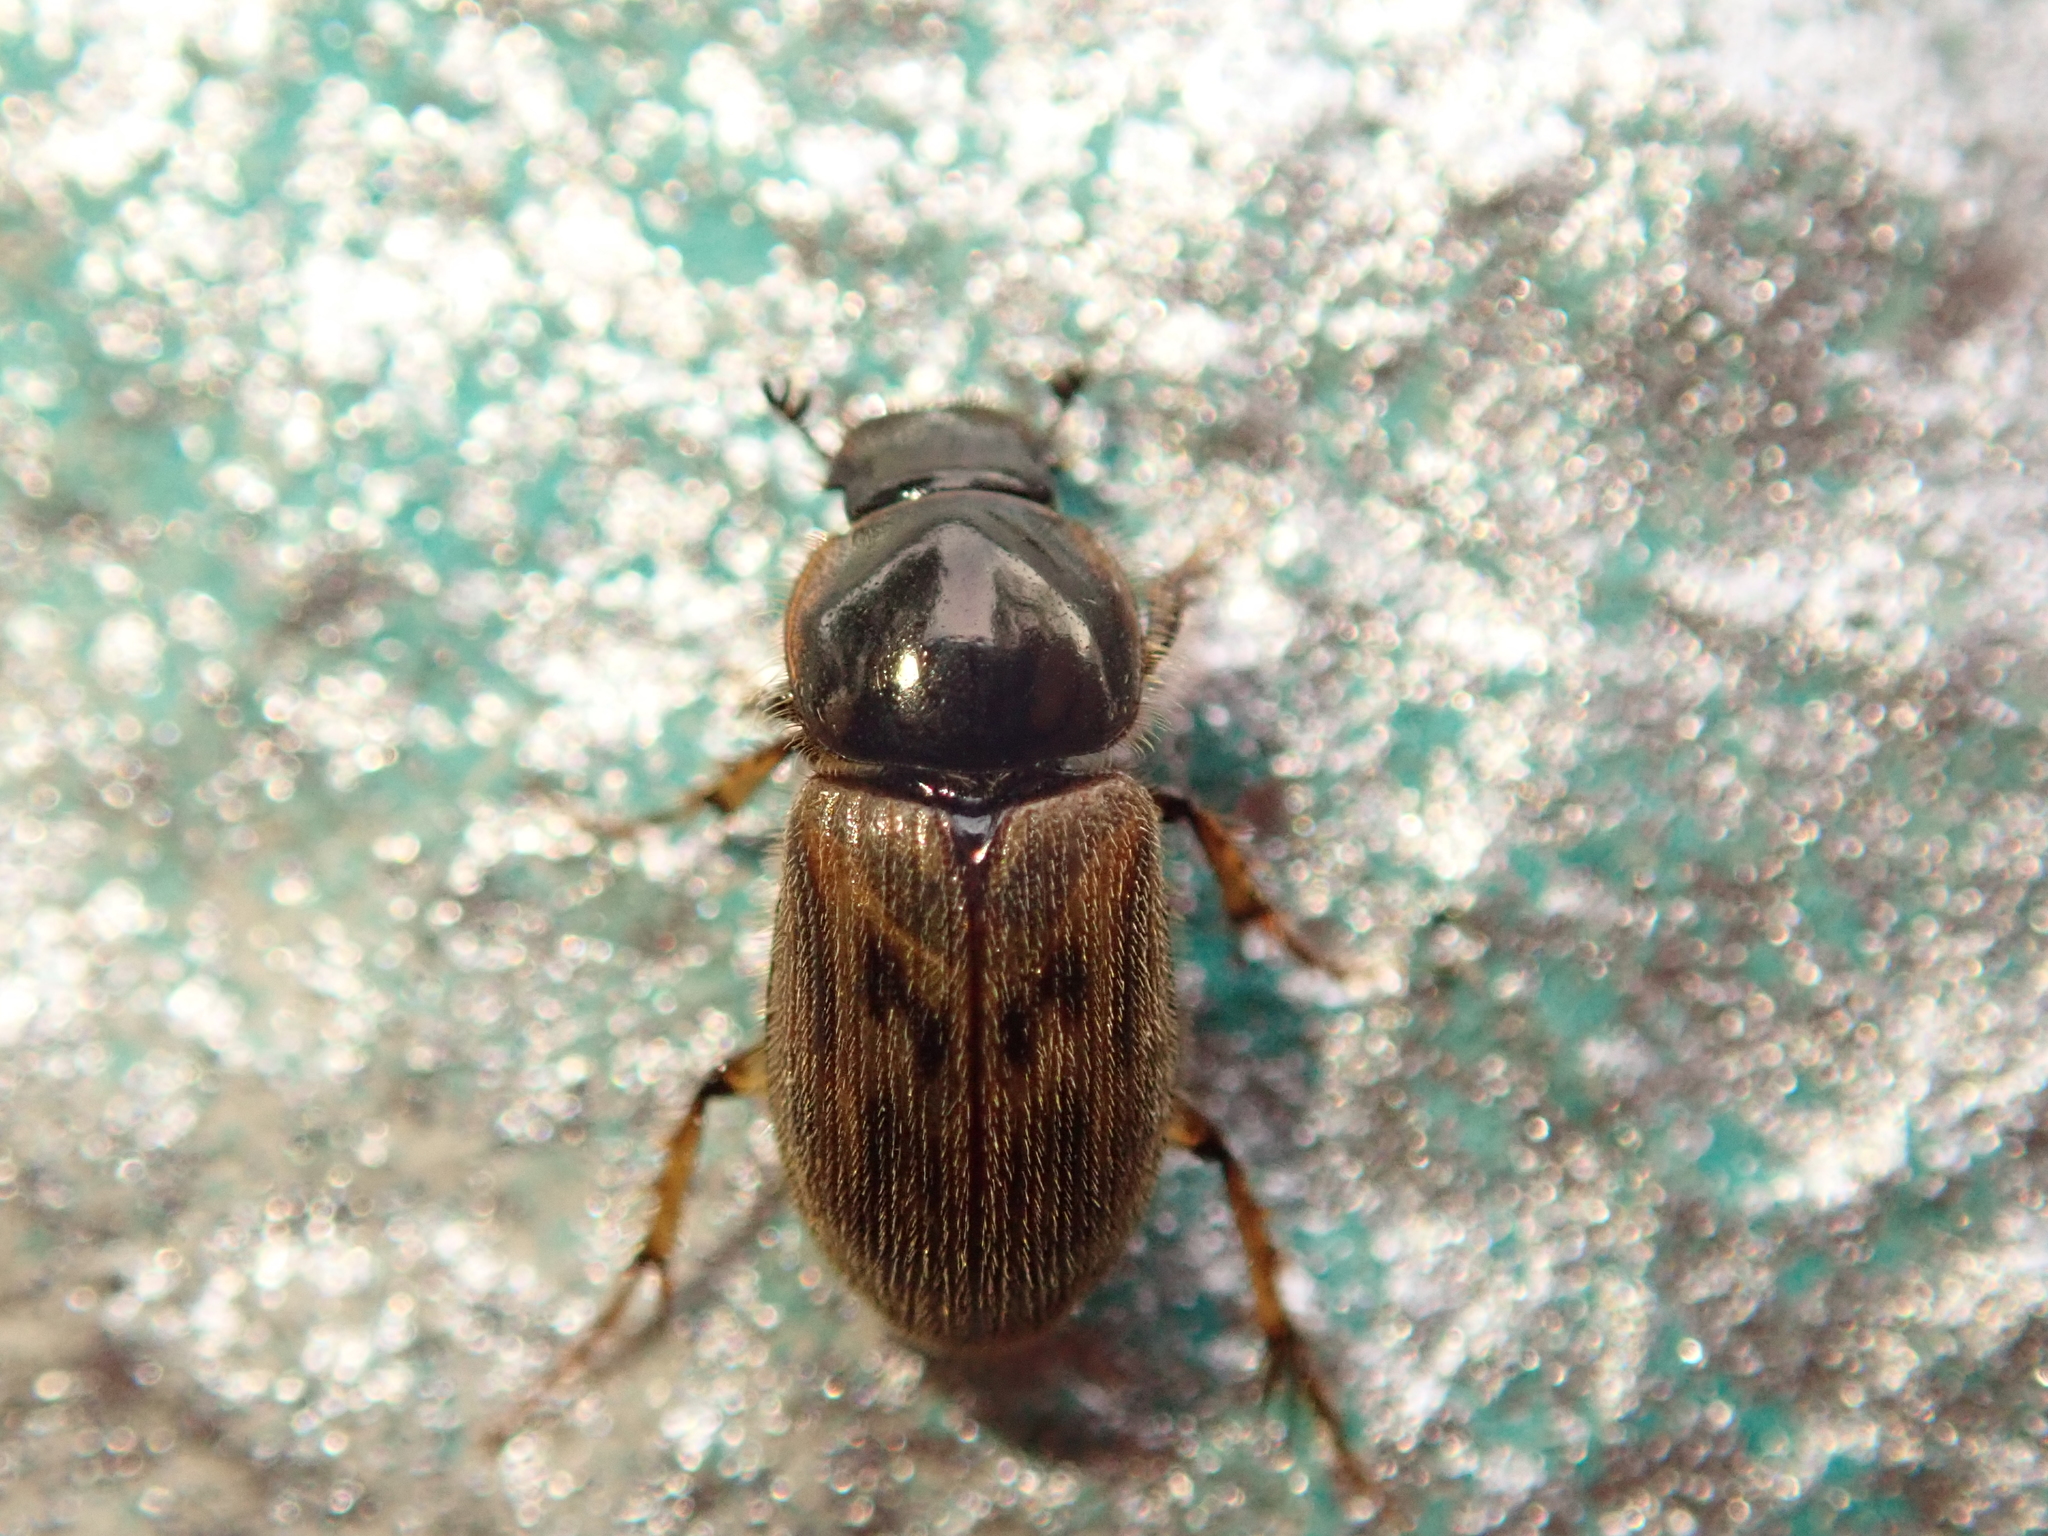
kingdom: Animalia
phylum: Arthropoda
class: Insecta
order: Coleoptera
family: Scarabaeidae
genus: Nimbus
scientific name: Nimbus contaminatus
